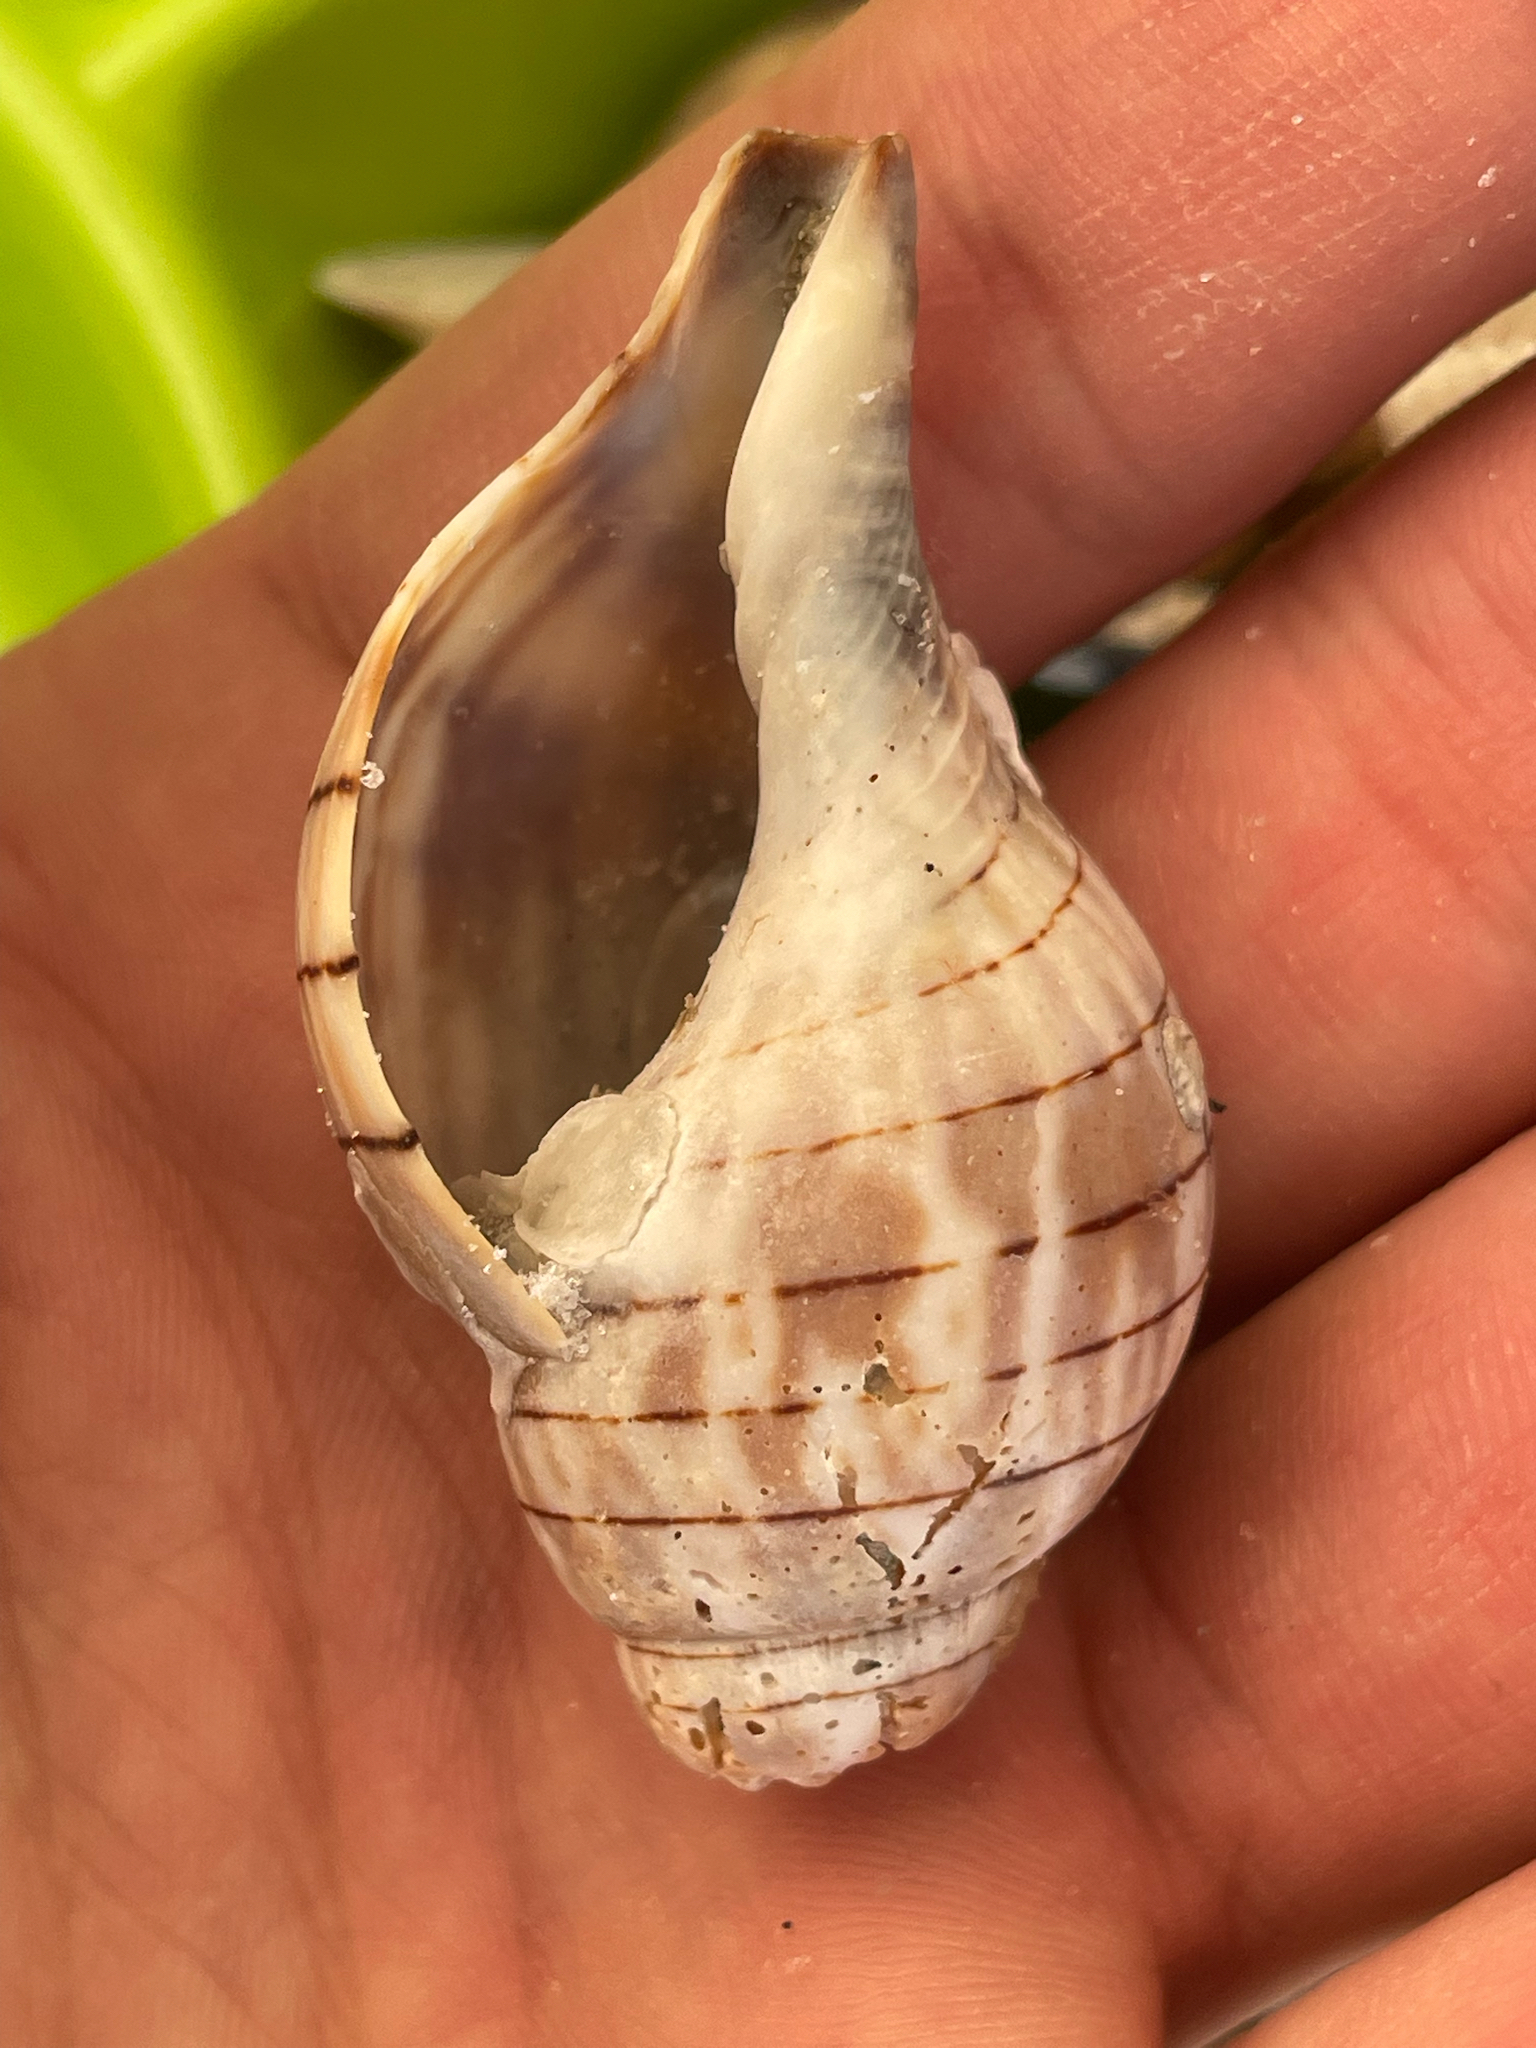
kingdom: Animalia
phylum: Mollusca
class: Gastropoda
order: Neogastropoda
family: Fasciolariidae
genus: Cinctura
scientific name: Cinctura hunteria
